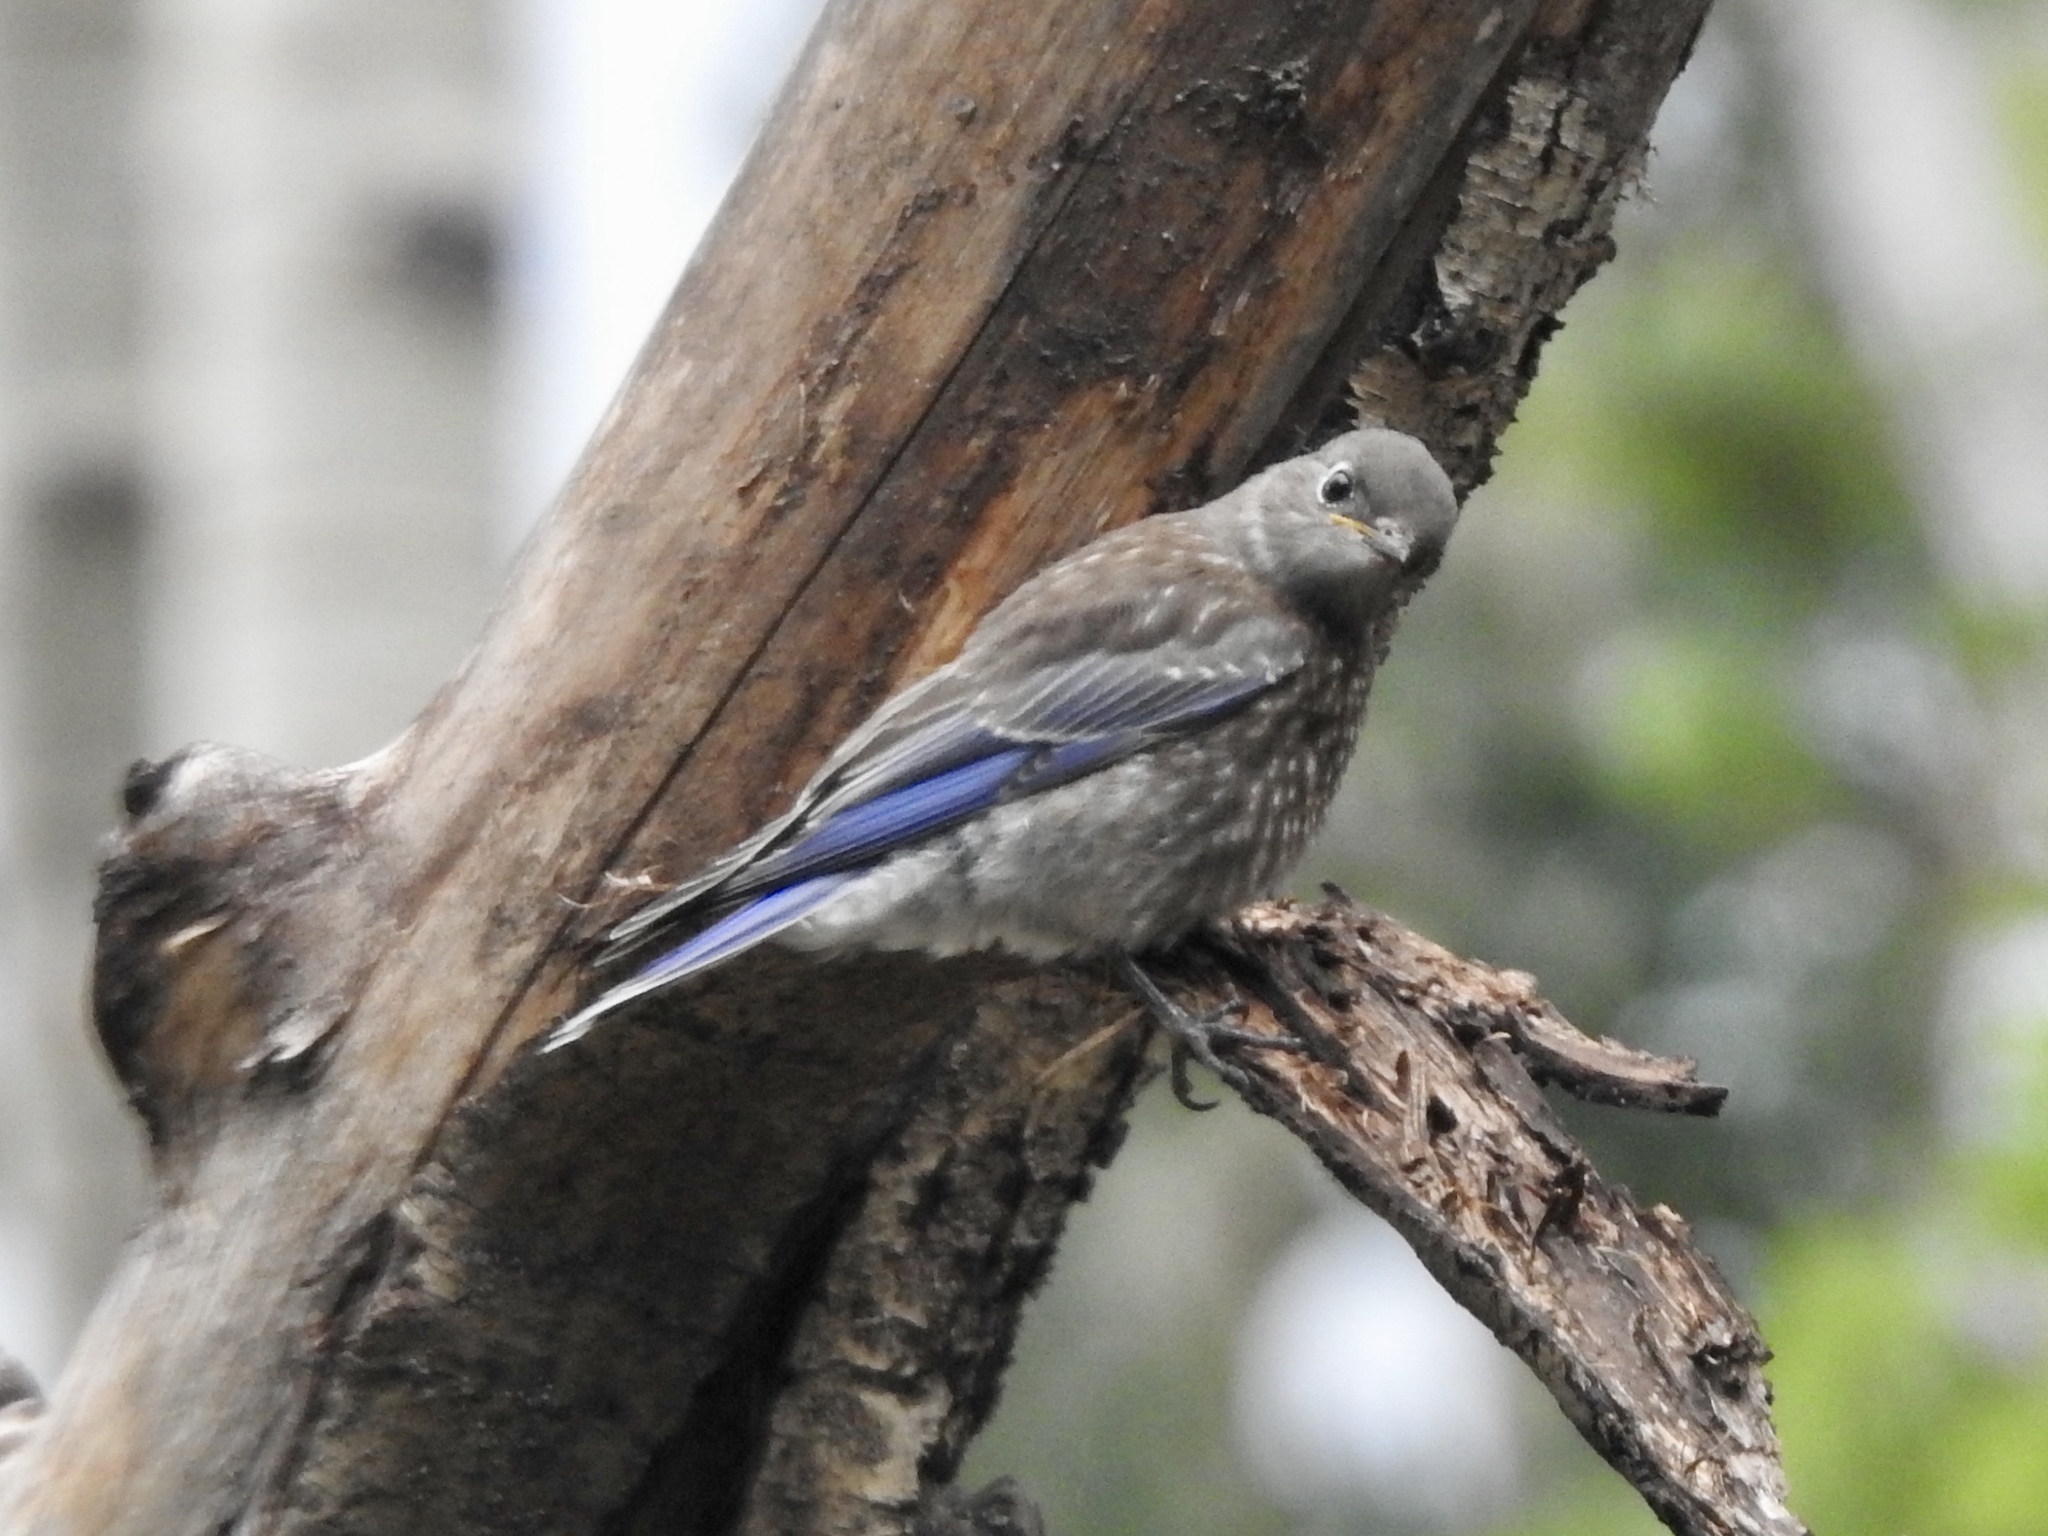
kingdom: Animalia
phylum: Chordata
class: Aves
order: Passeriformes
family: Turdidae
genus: Sialia
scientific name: Sialia currucoides
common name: Mountain bluebird
